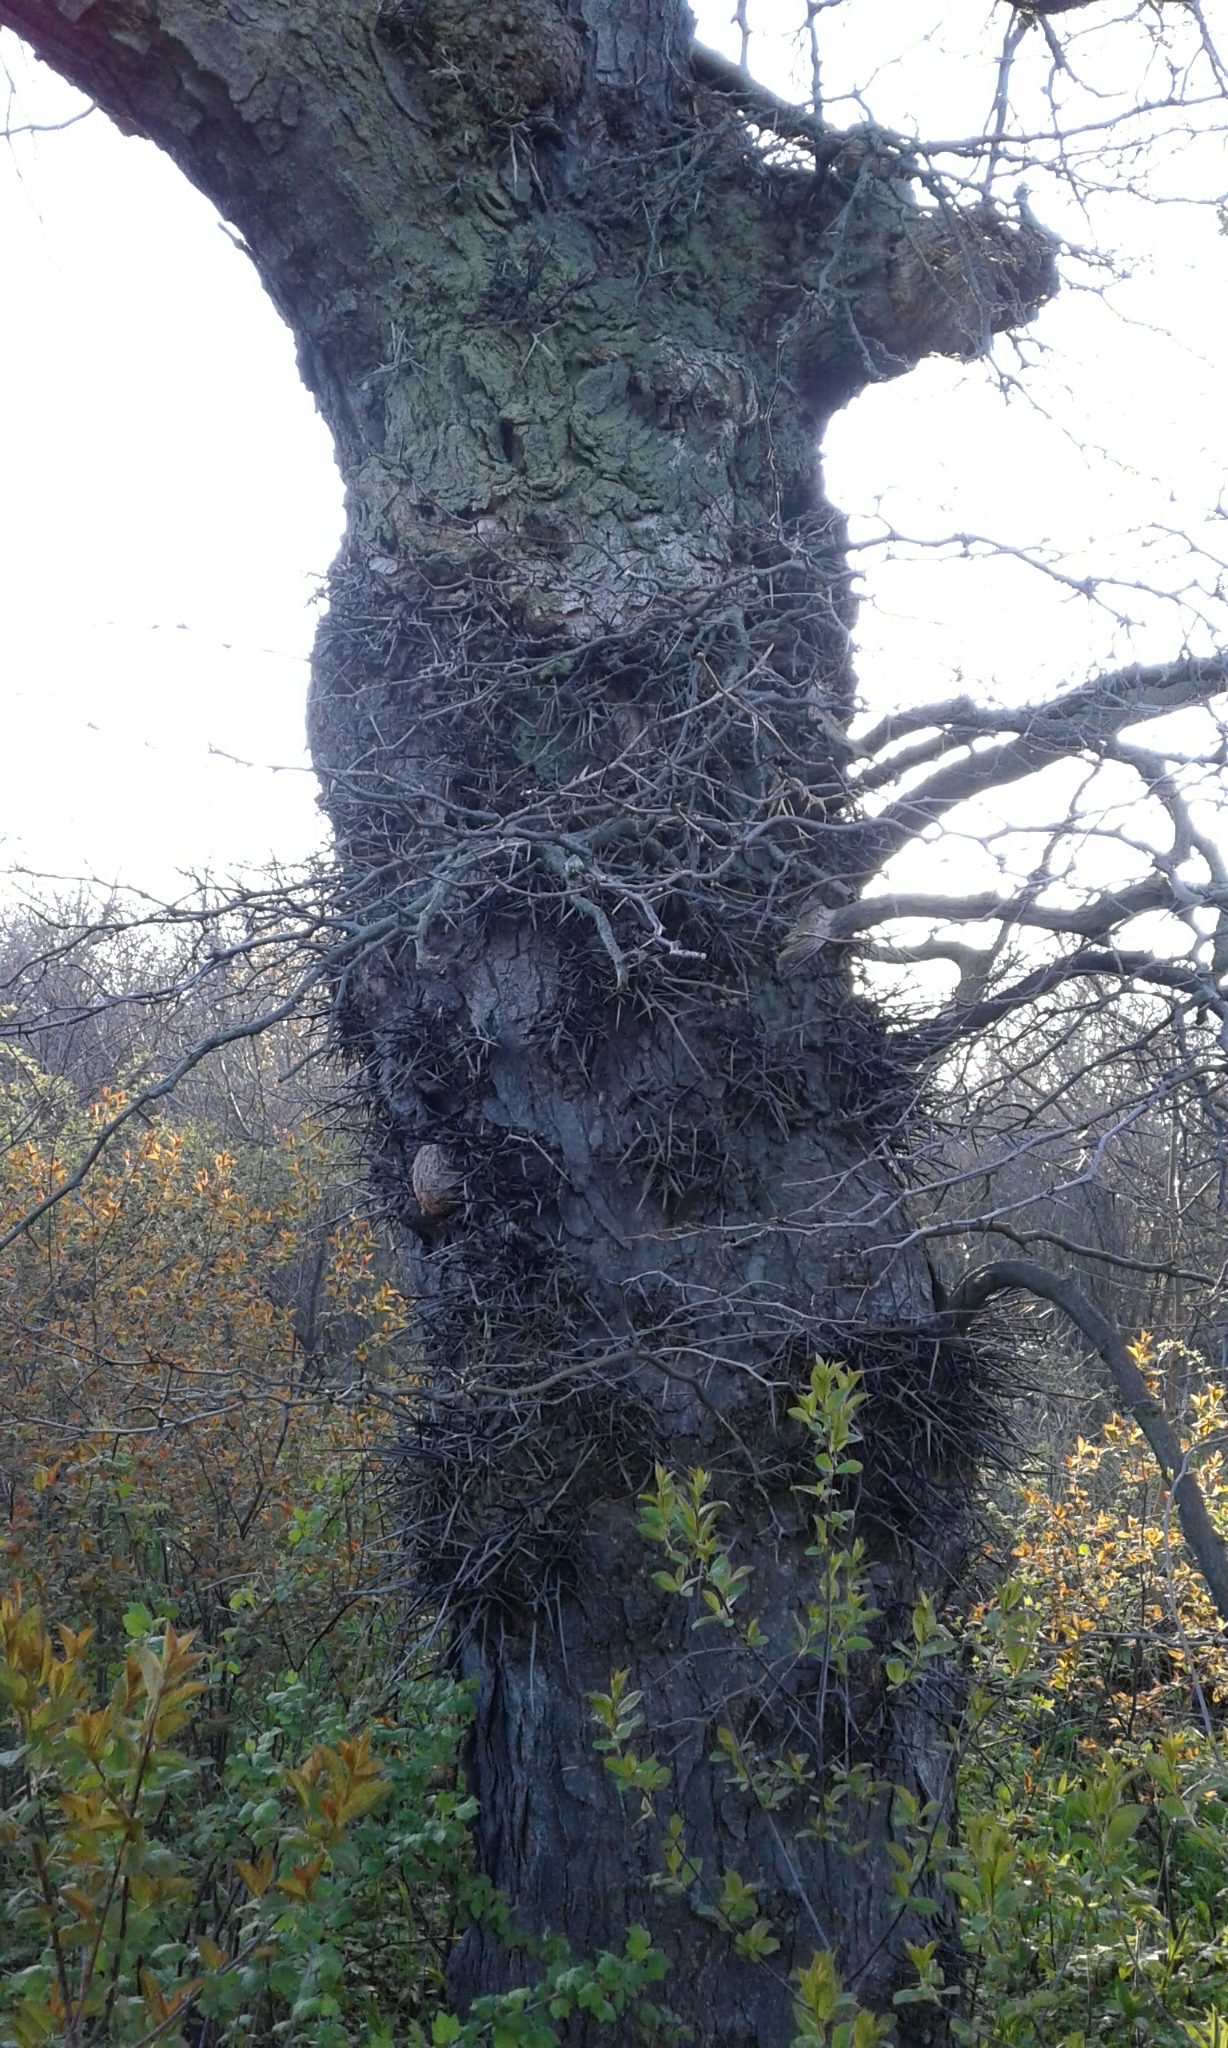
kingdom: Plantae
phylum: Tracheophyta
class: Magnoliopsida
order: Fabales
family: Fabaceae
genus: Gleditsia
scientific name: Gleditsia triacanthos
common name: Common honeylocust
